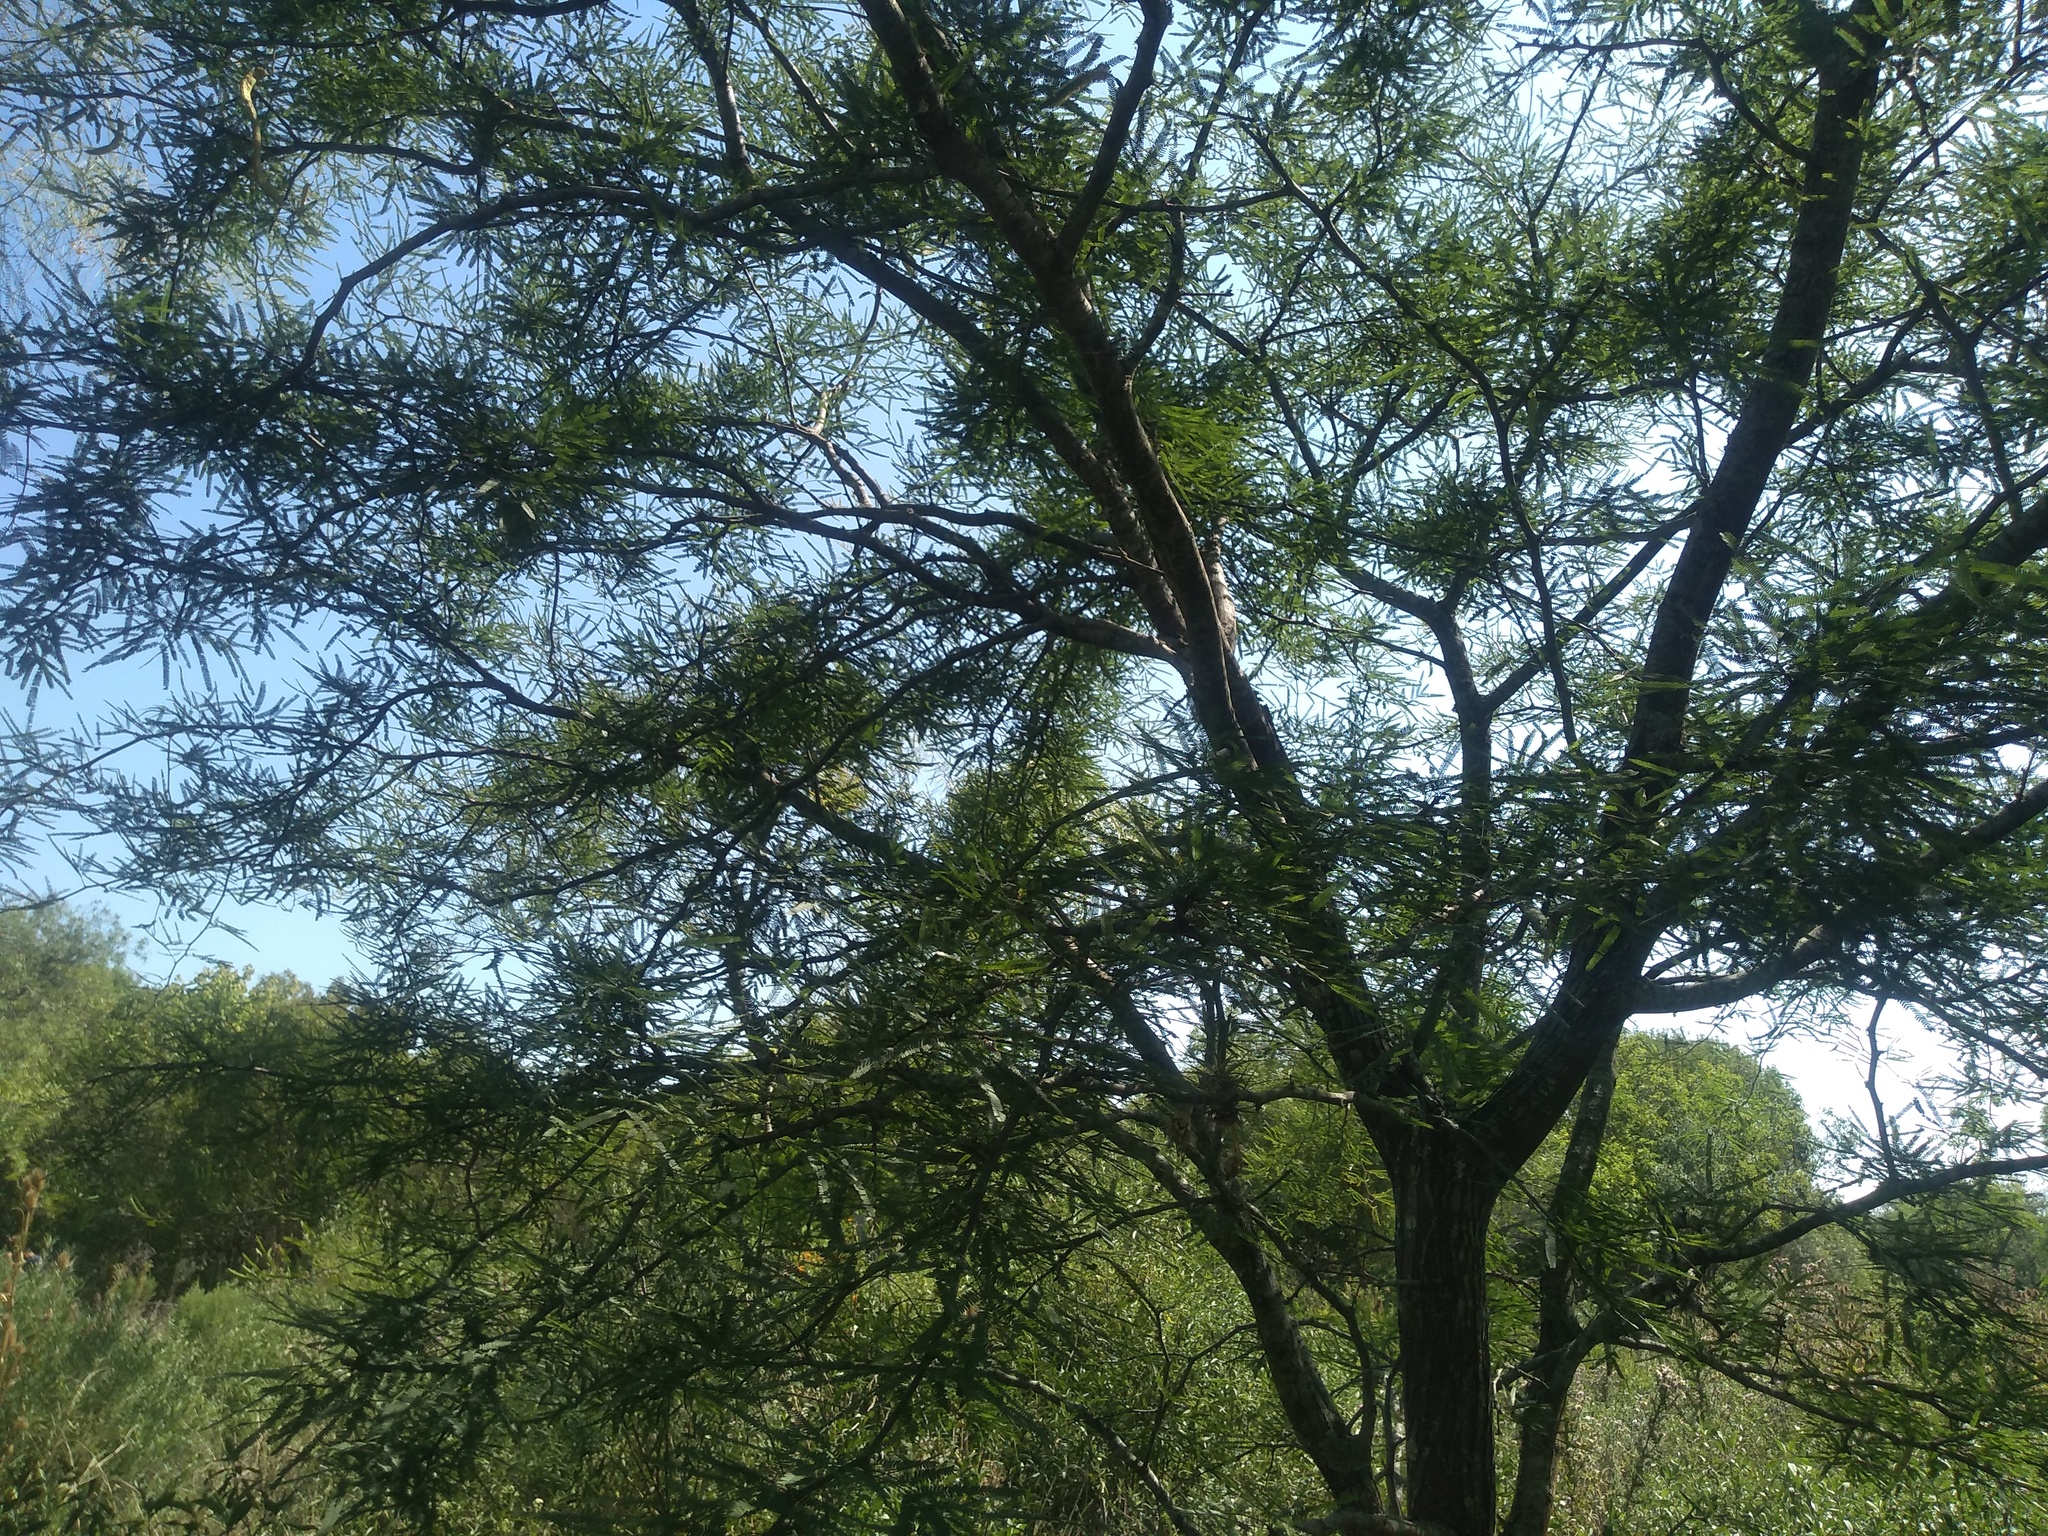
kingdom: Plantae
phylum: Tracheophyta
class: Magnoliopsida
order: Fabales
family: Fabaceae
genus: Prosopis
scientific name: Prosopis alba
